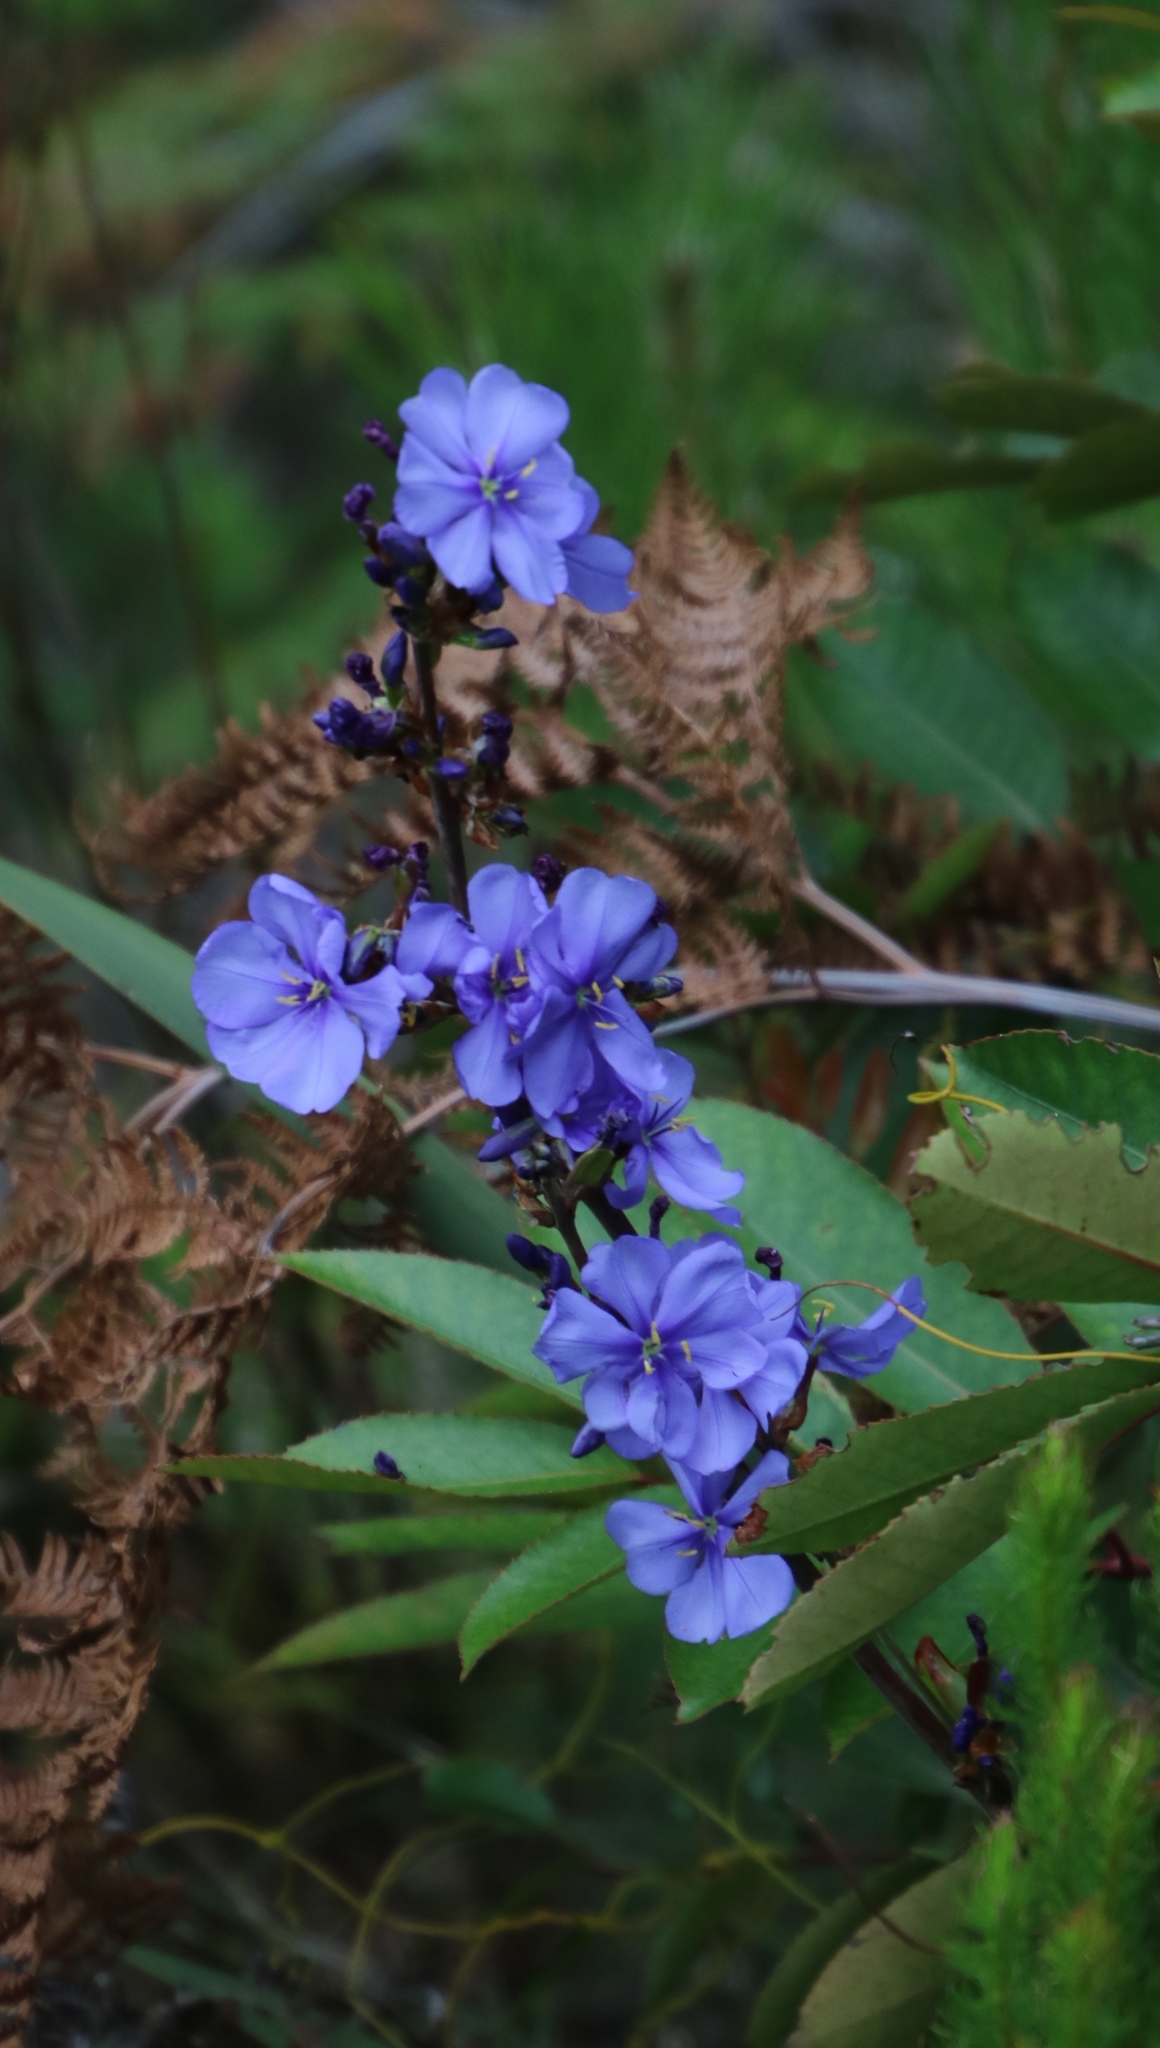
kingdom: Plantae
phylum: Tracheophyta
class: Liliopsida
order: Asparagales
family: Iridaceae
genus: Aristea
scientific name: Aristea bakeri
